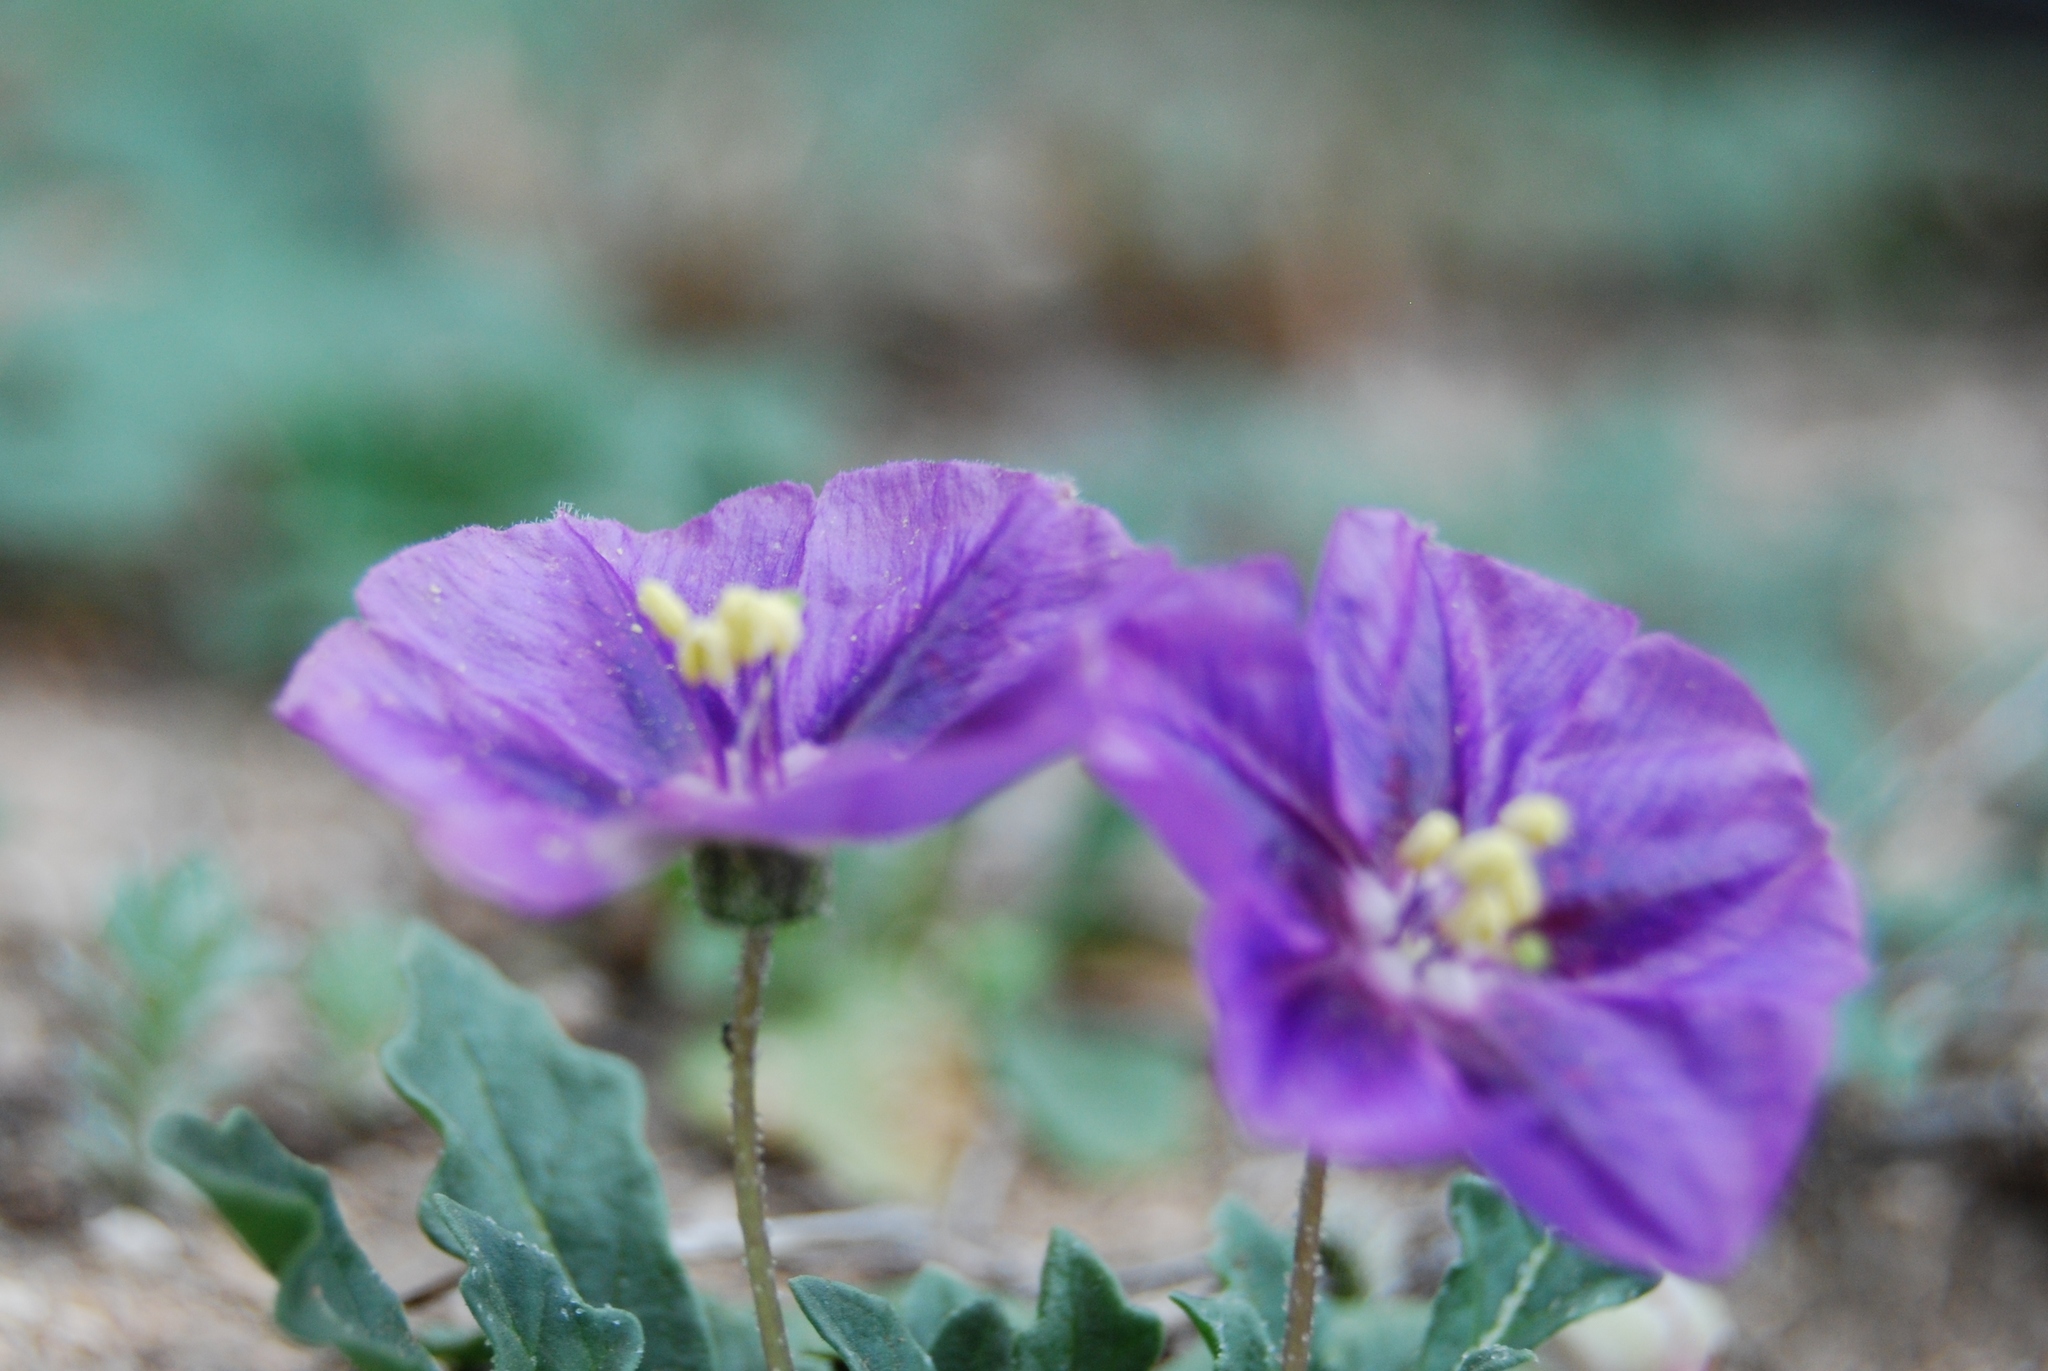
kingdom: Plantae
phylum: Tracheophyta
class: Magnoliopsida
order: Solanales
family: Solanaceae
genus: Quincula
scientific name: Quincula lobata
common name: Purple-ground-cherry
